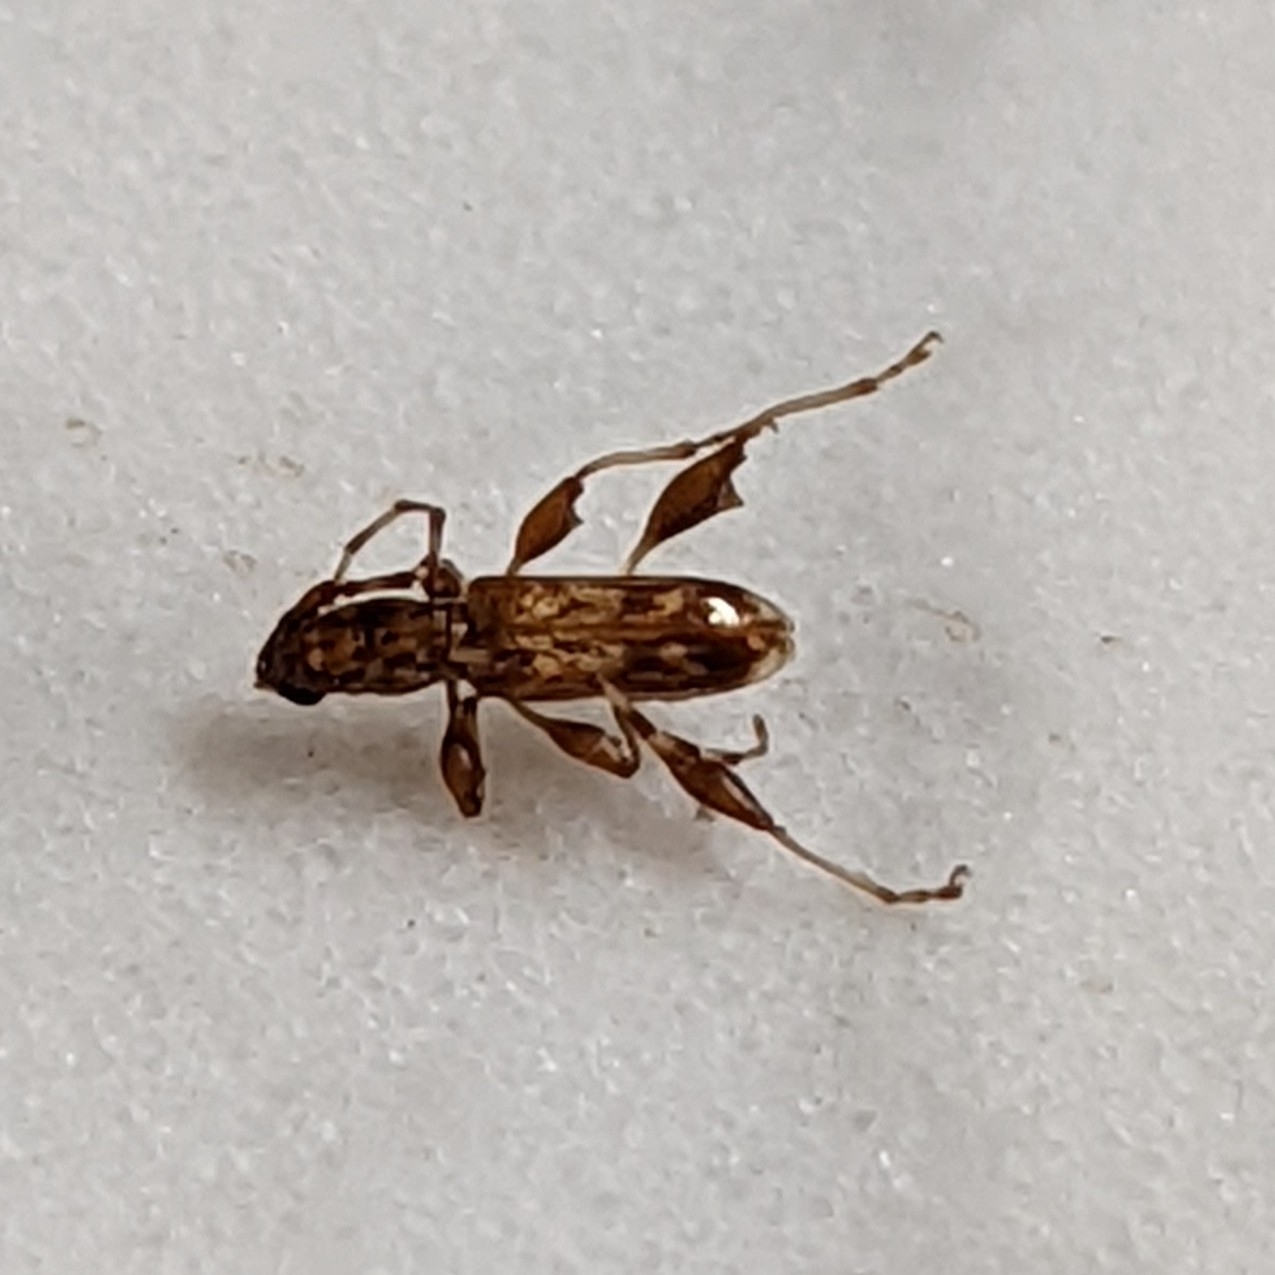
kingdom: Animalia
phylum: Arthropoda
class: Insecta
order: Coleoptera
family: Cerambycidae
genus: Plectromerus
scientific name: Plectromerus dentipes
